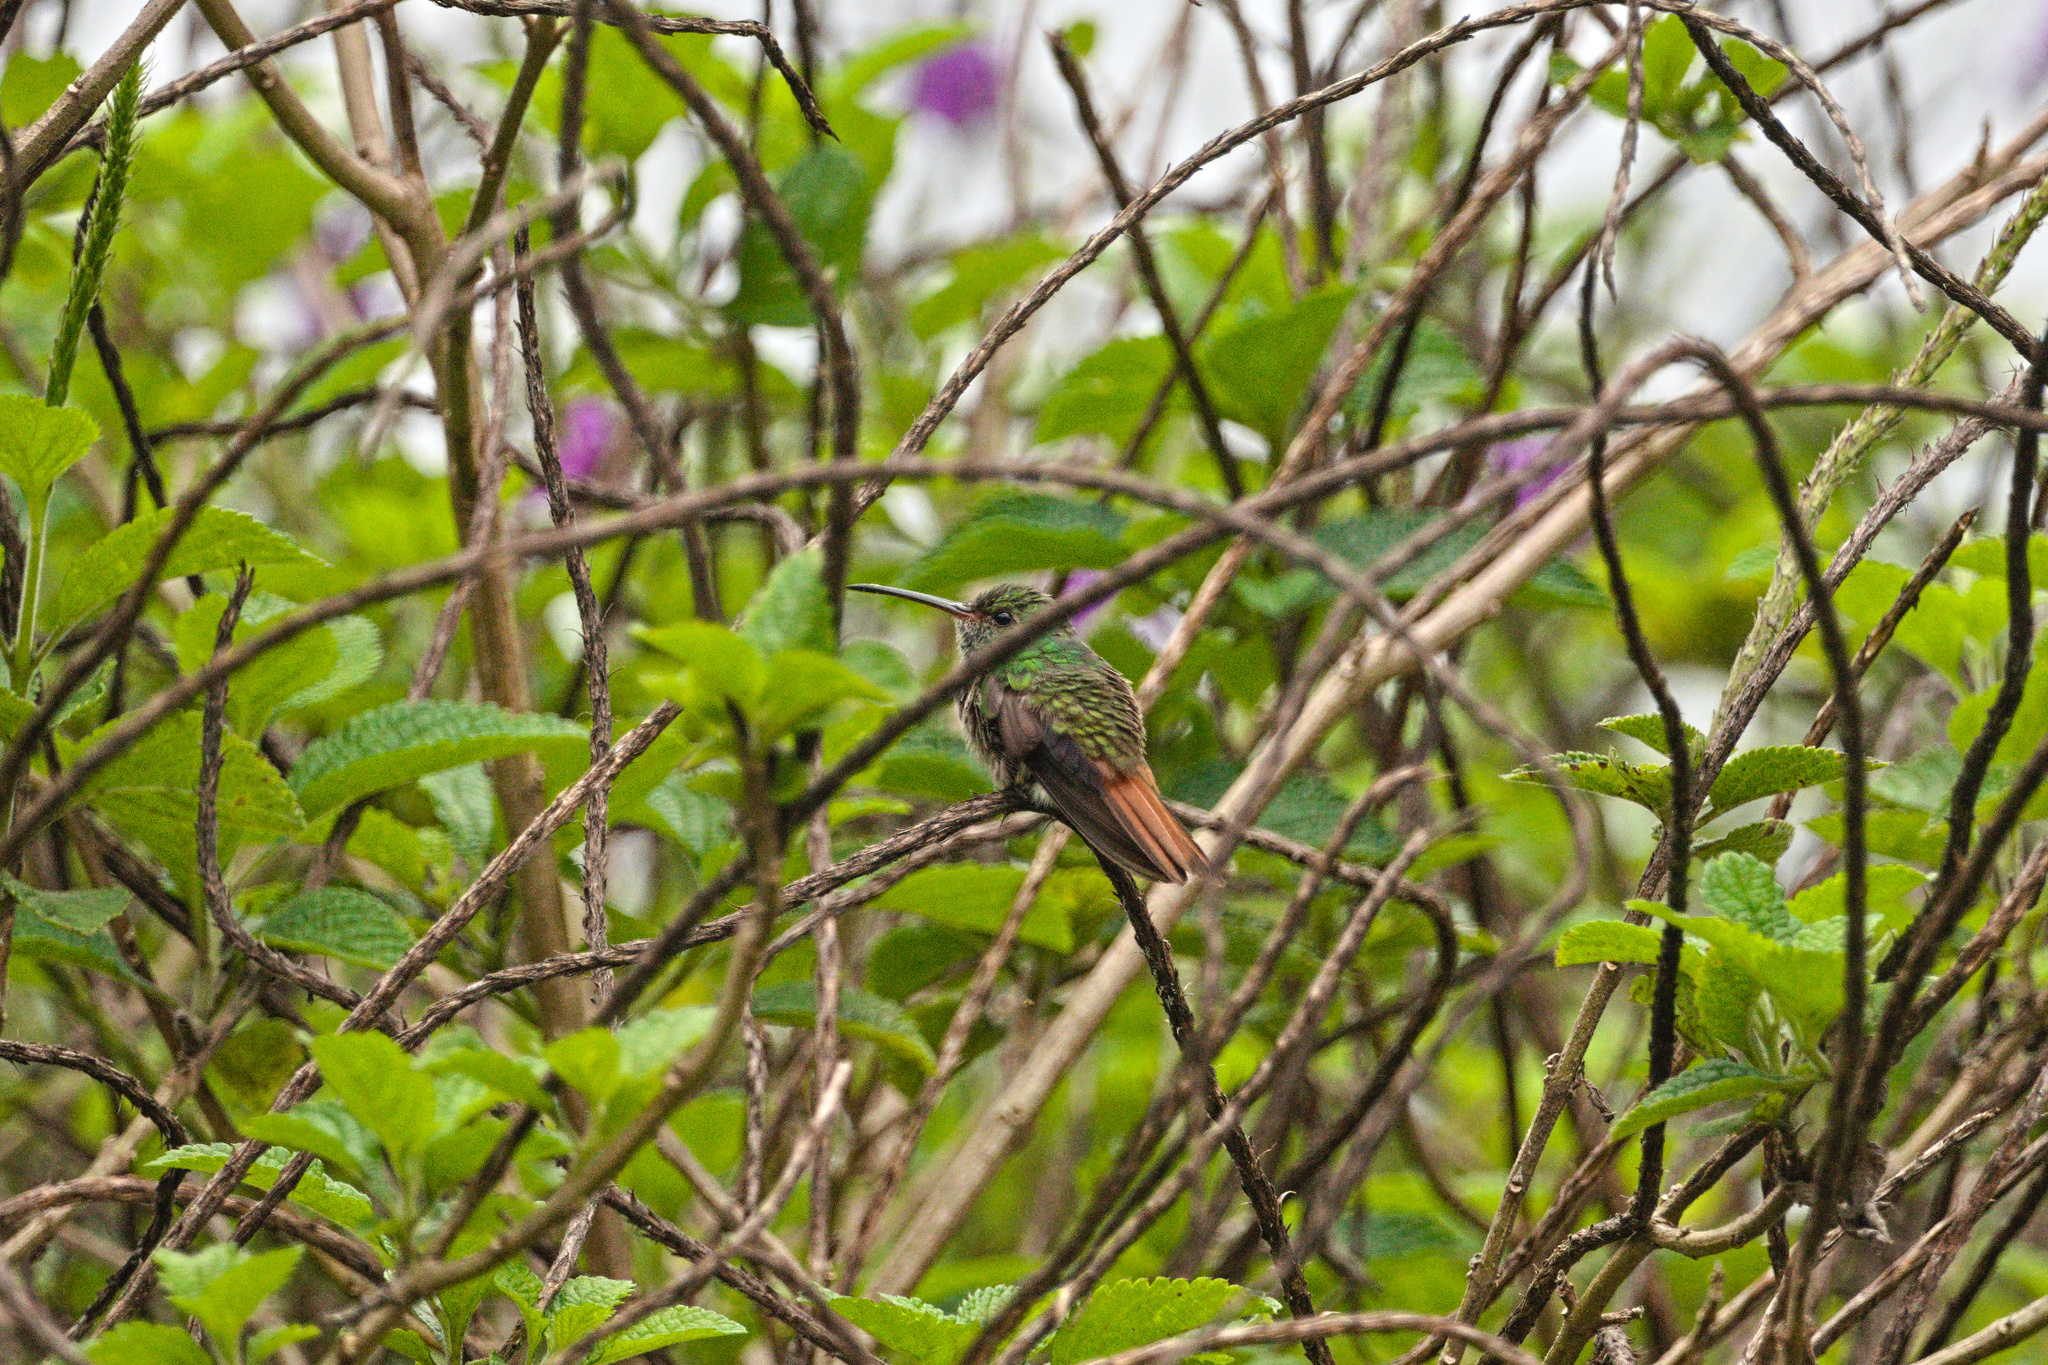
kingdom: Animalia
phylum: Chordata
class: Aves
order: Apodiformes
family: Trochilidae
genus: Amazilia
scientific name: Amazilia tzacatl
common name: Rufous-tailed hummingbird
